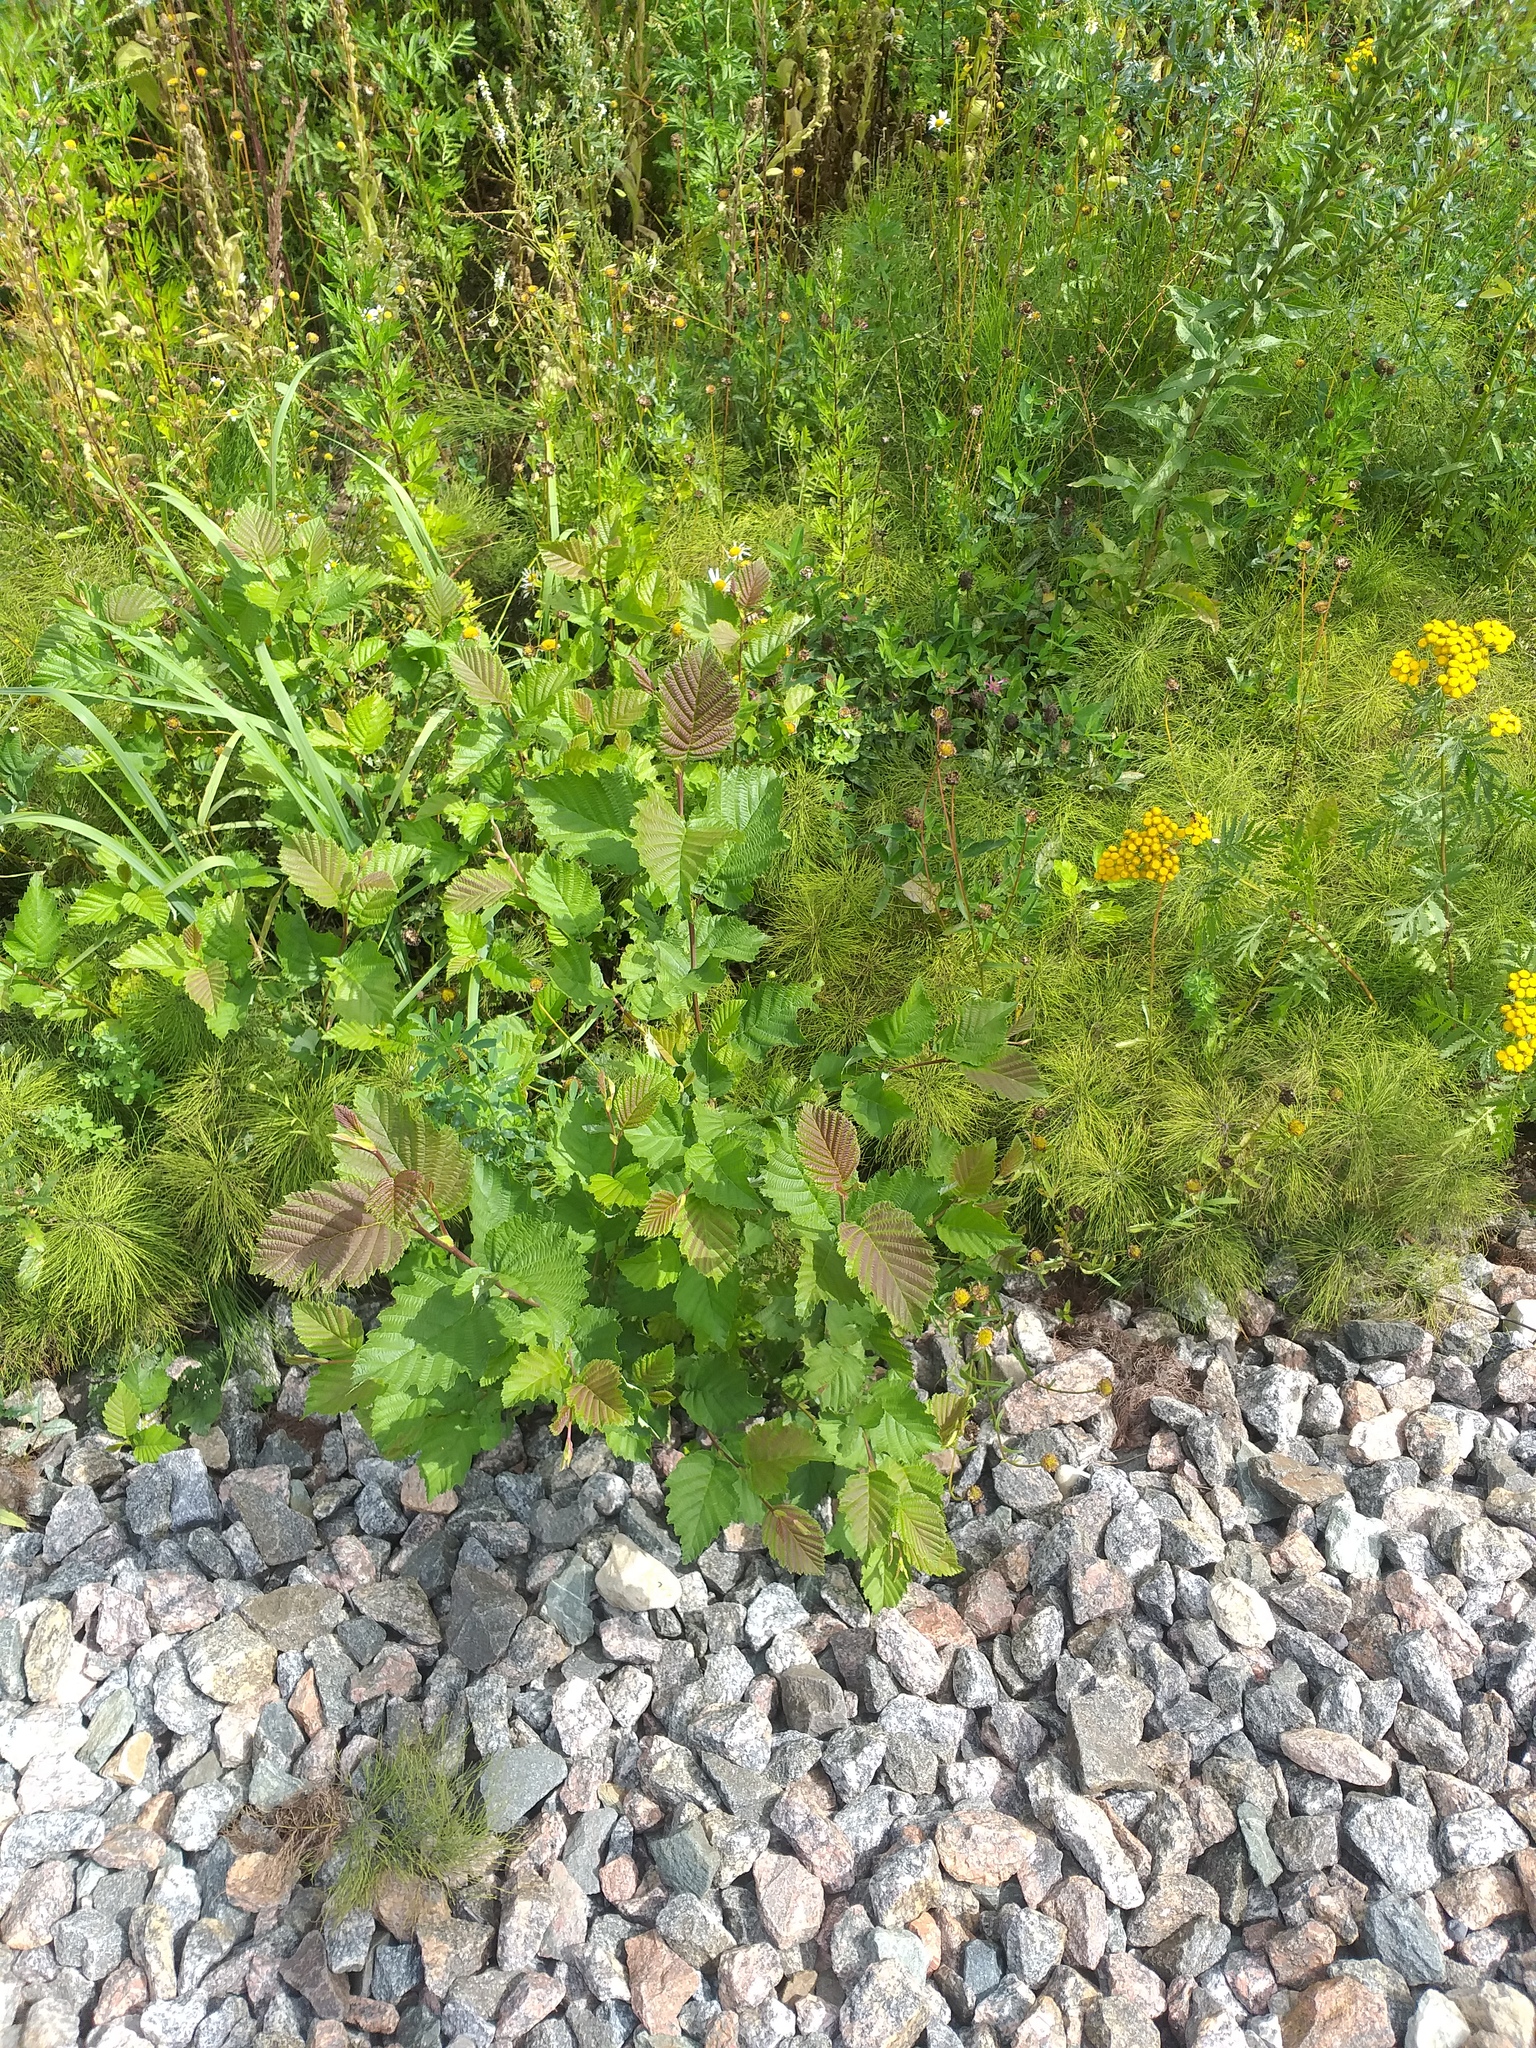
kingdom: Plantae
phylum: Tracheophyta
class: Magnoliopsida
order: Fagales
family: Betulaceae
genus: Alnus
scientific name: Alnus incana
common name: Grey alder
